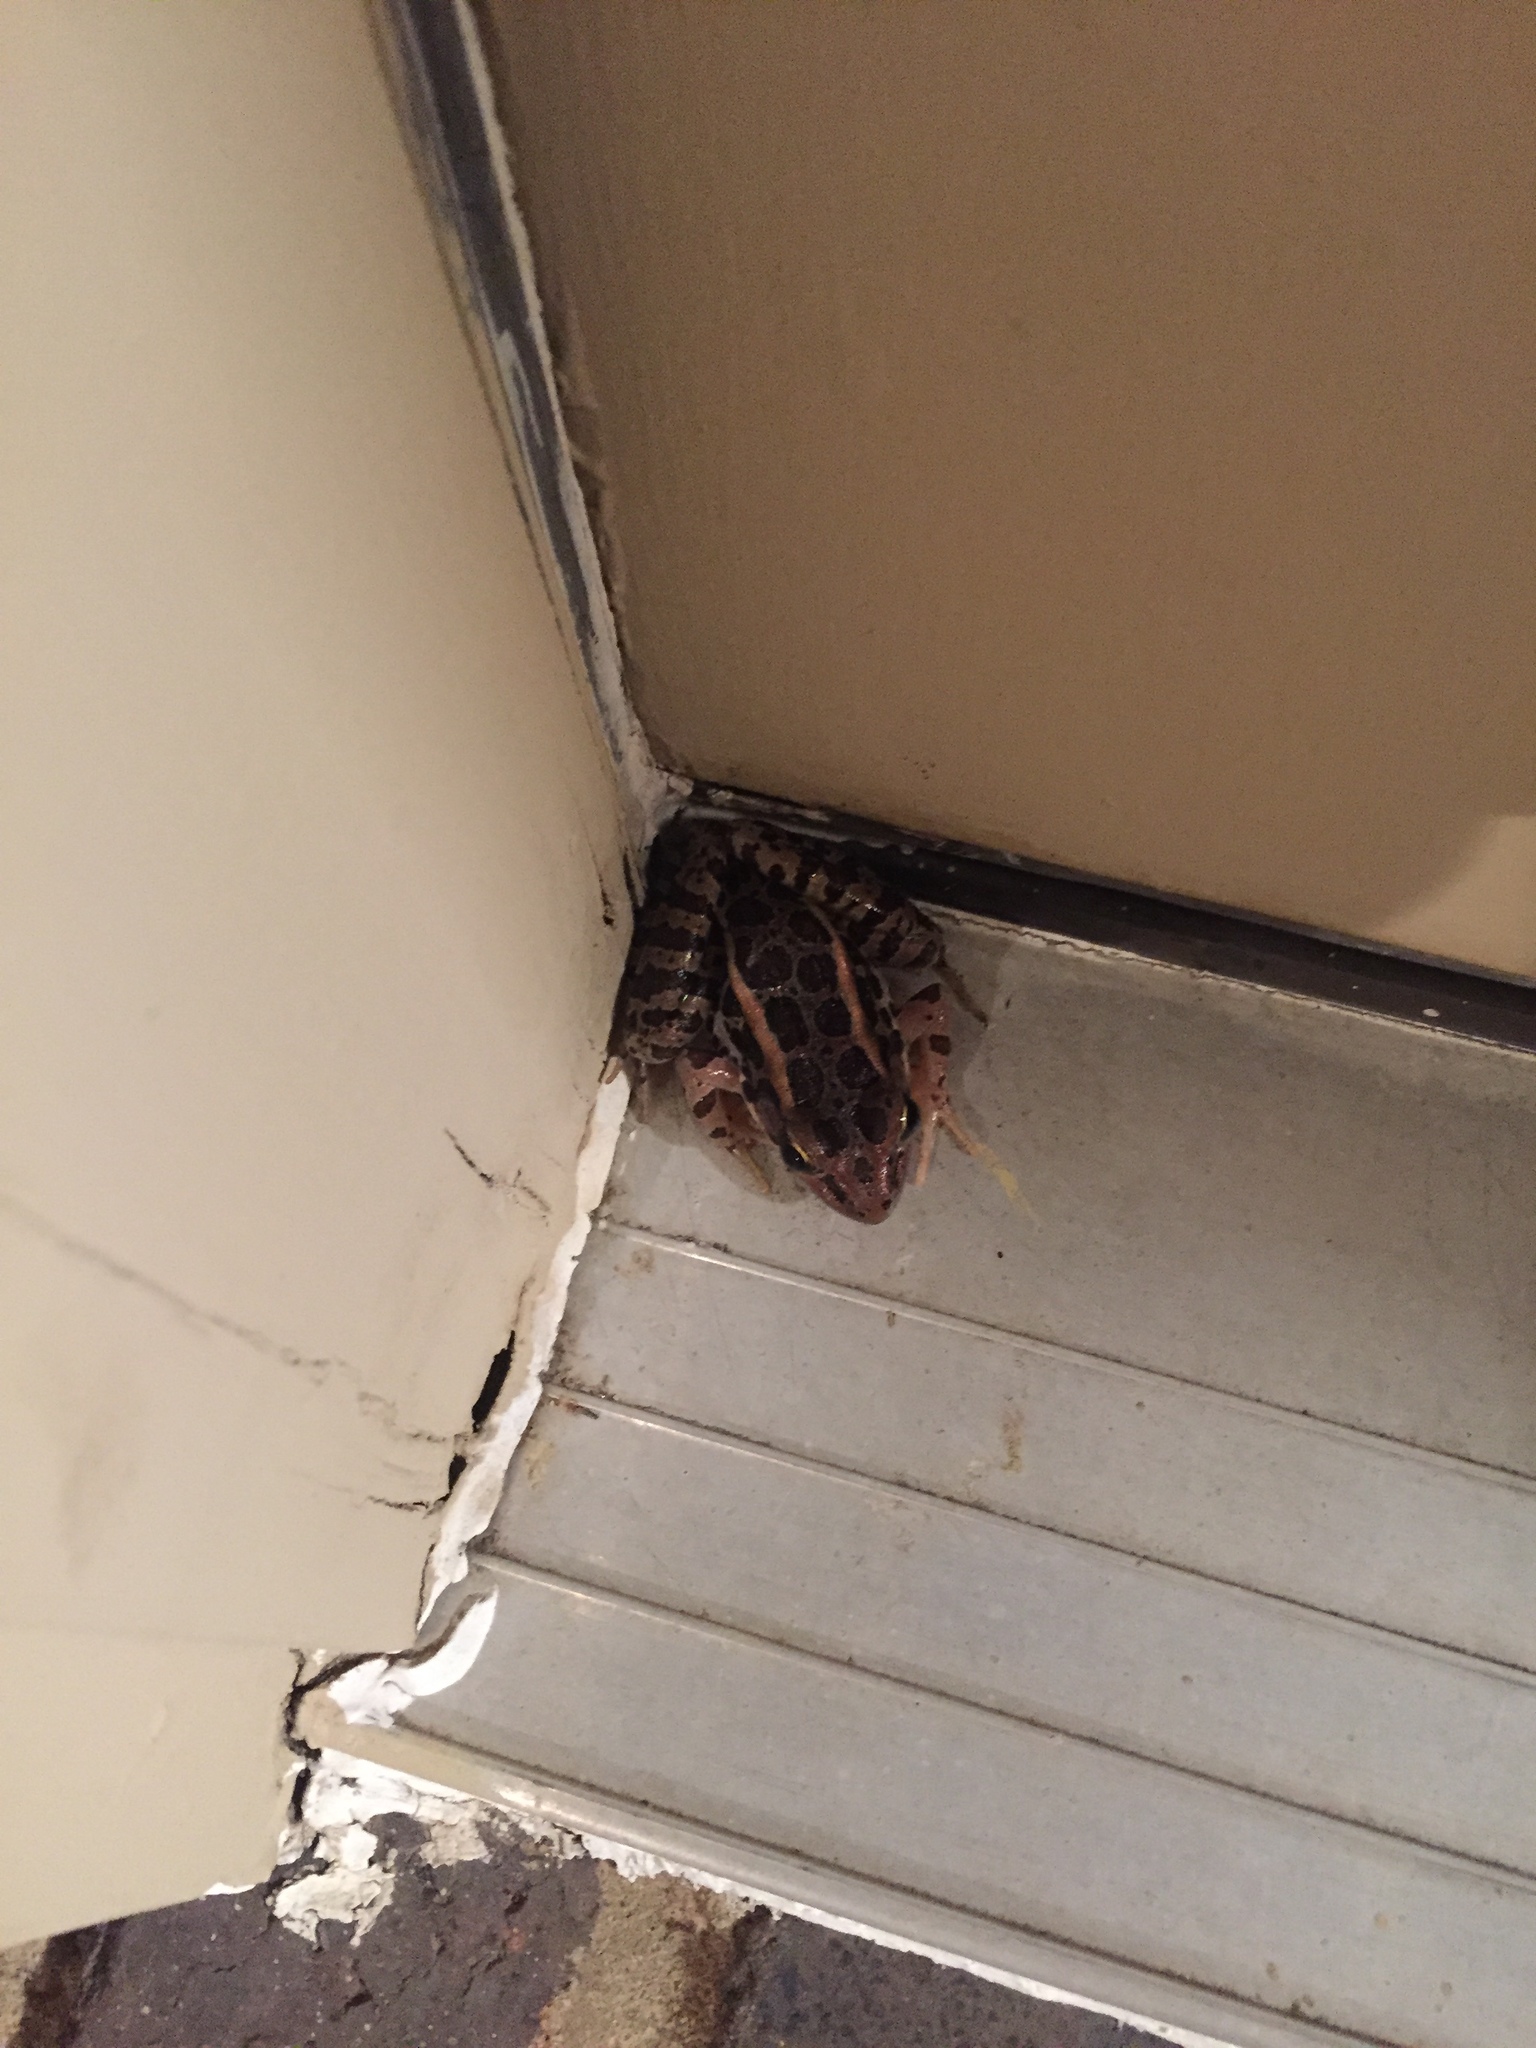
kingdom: Animalia
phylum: Chordata
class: Amphibia
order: Anura
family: Ranidae
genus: Lithobates
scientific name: Lithobates palustris
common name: Pickerel frog
